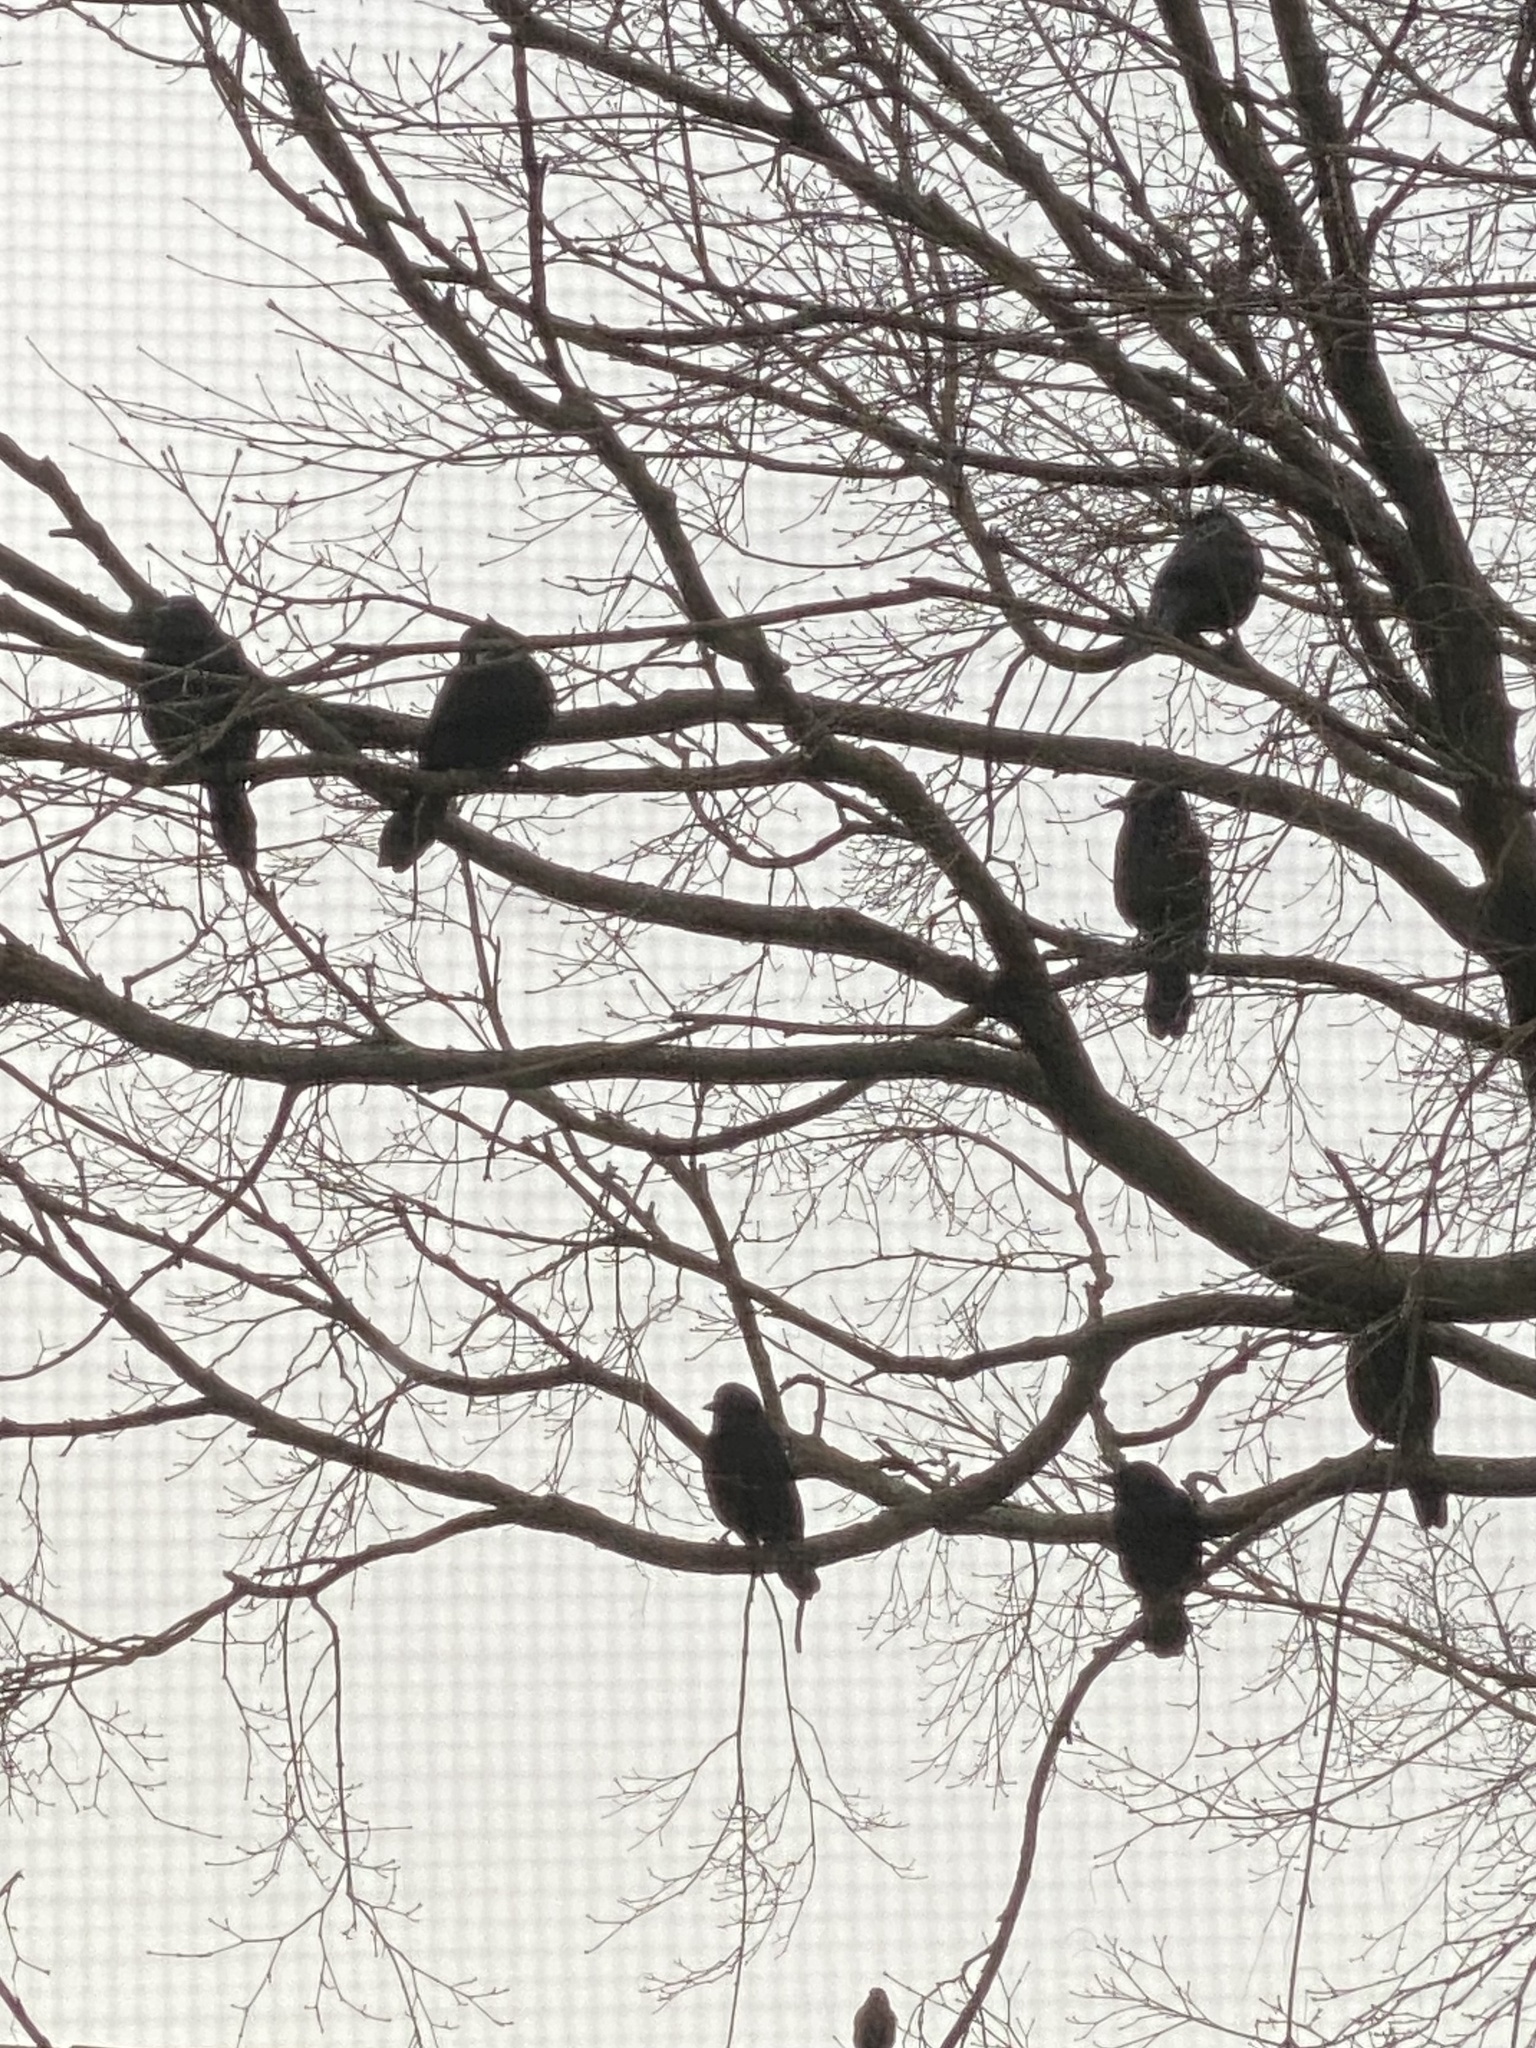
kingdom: Animalia
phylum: Chordata
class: Aves
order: Passeriformes
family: Icteridae
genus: Quiscalus
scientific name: Quiscalus quiscula
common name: Common grackle
